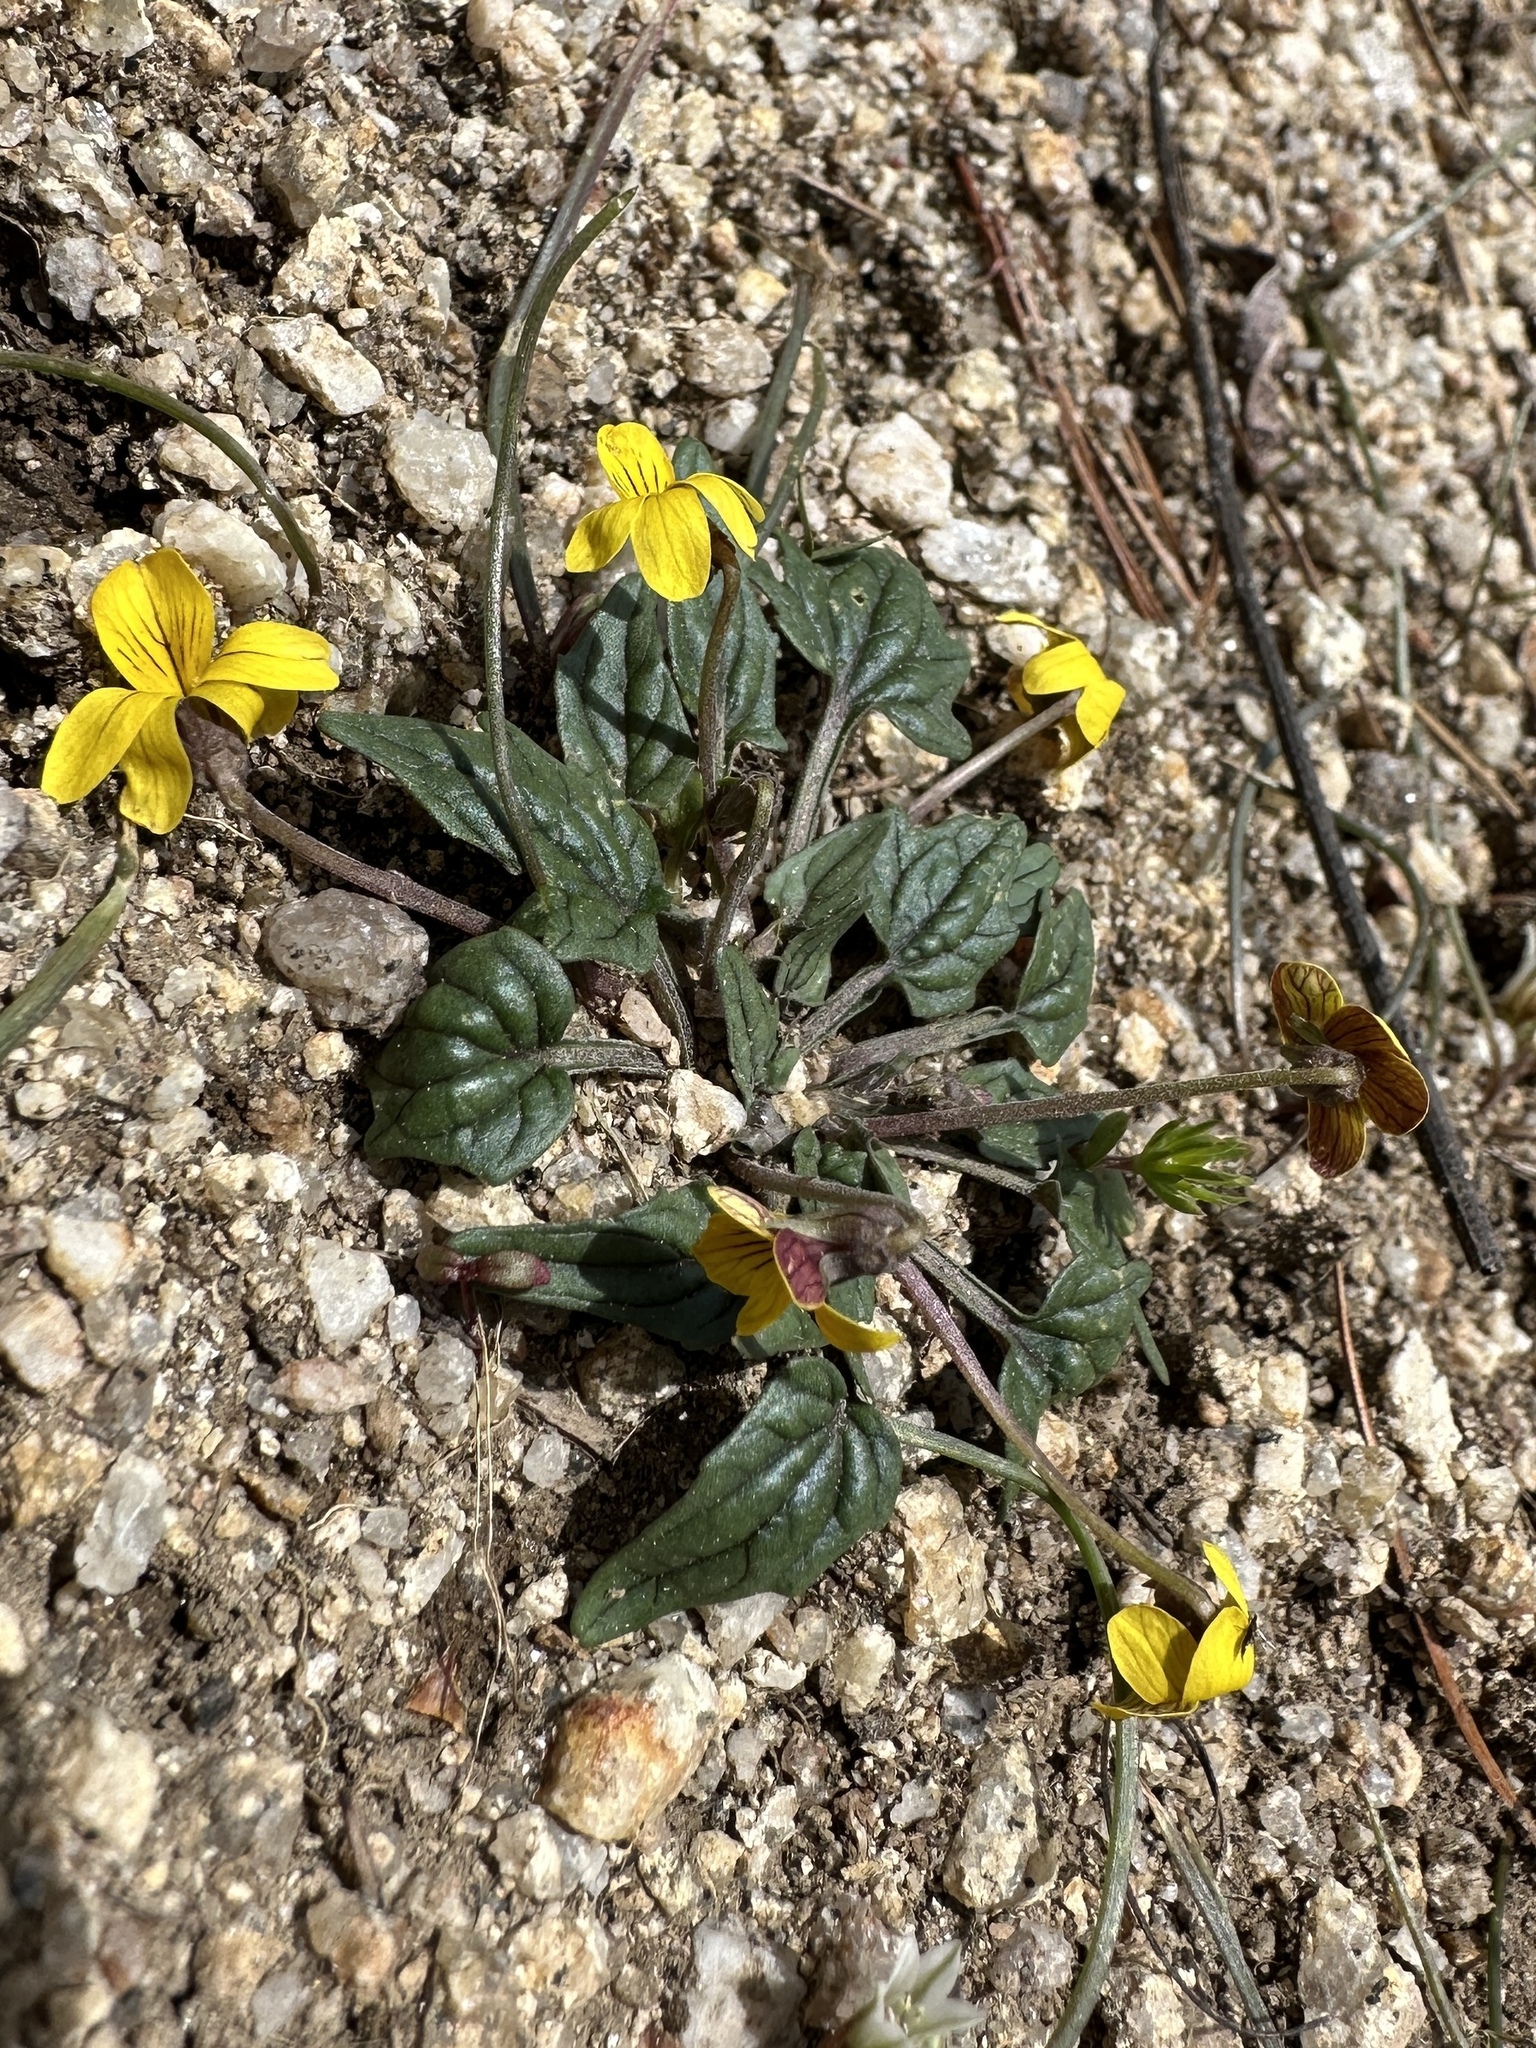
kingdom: Plantae
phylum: Tracheophyta
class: Magnoliopsida
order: Malpighiales
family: Violaceae
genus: Viola
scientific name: Viola purpurea
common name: Pine violet
